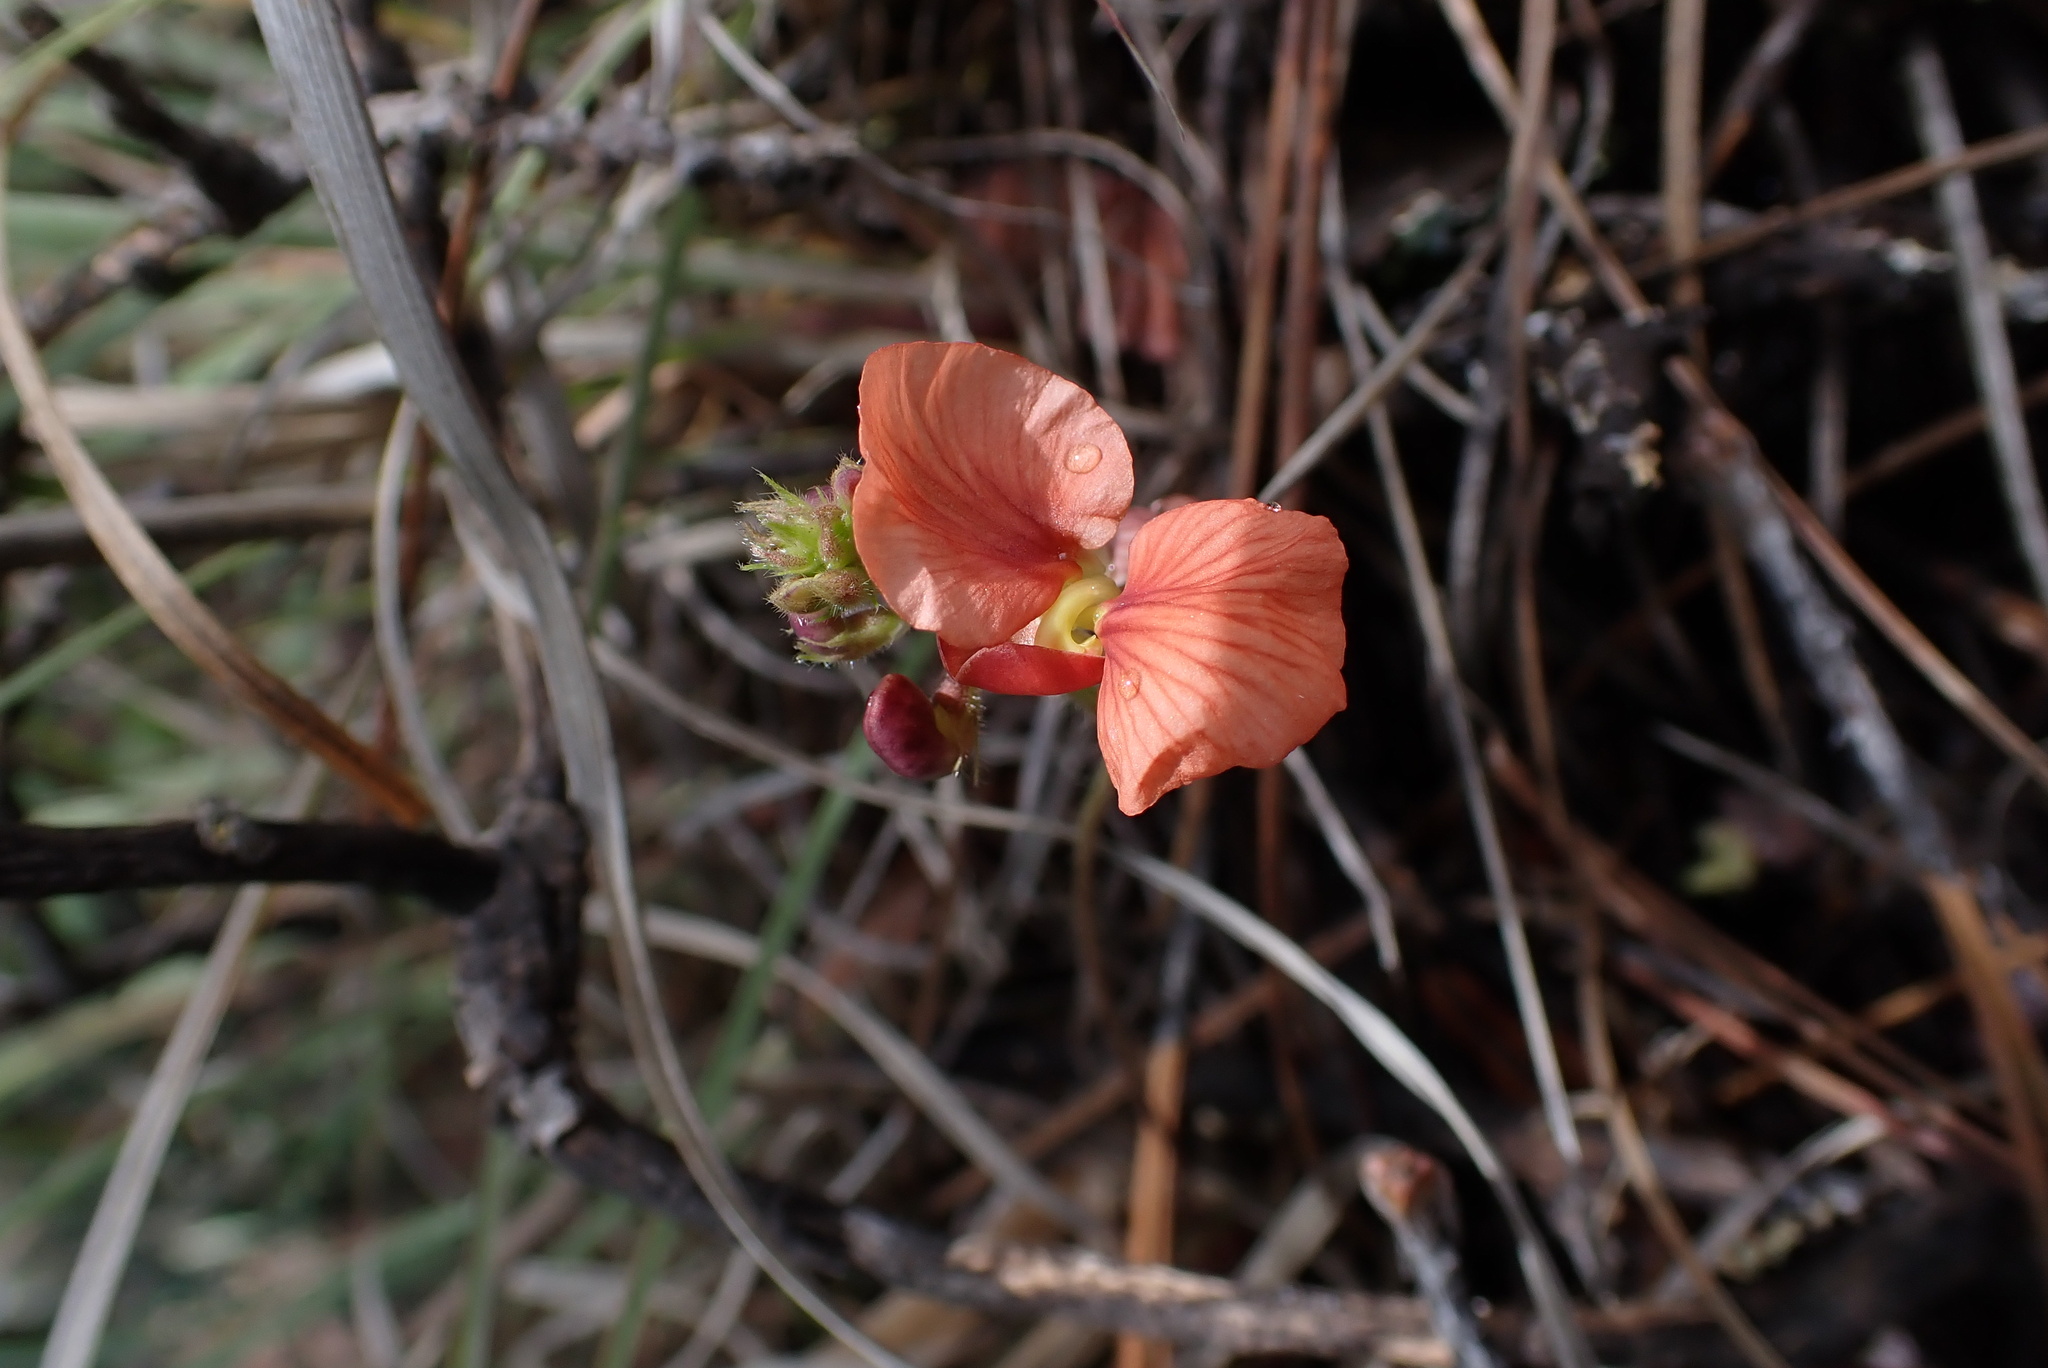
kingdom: Plantae
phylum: Tracheophyta
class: Magnoliopsida
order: Fabales
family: Fabaceae
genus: Macroptilium
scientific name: Macroptilium gibbosifolium
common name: Variableleaf bushbean
